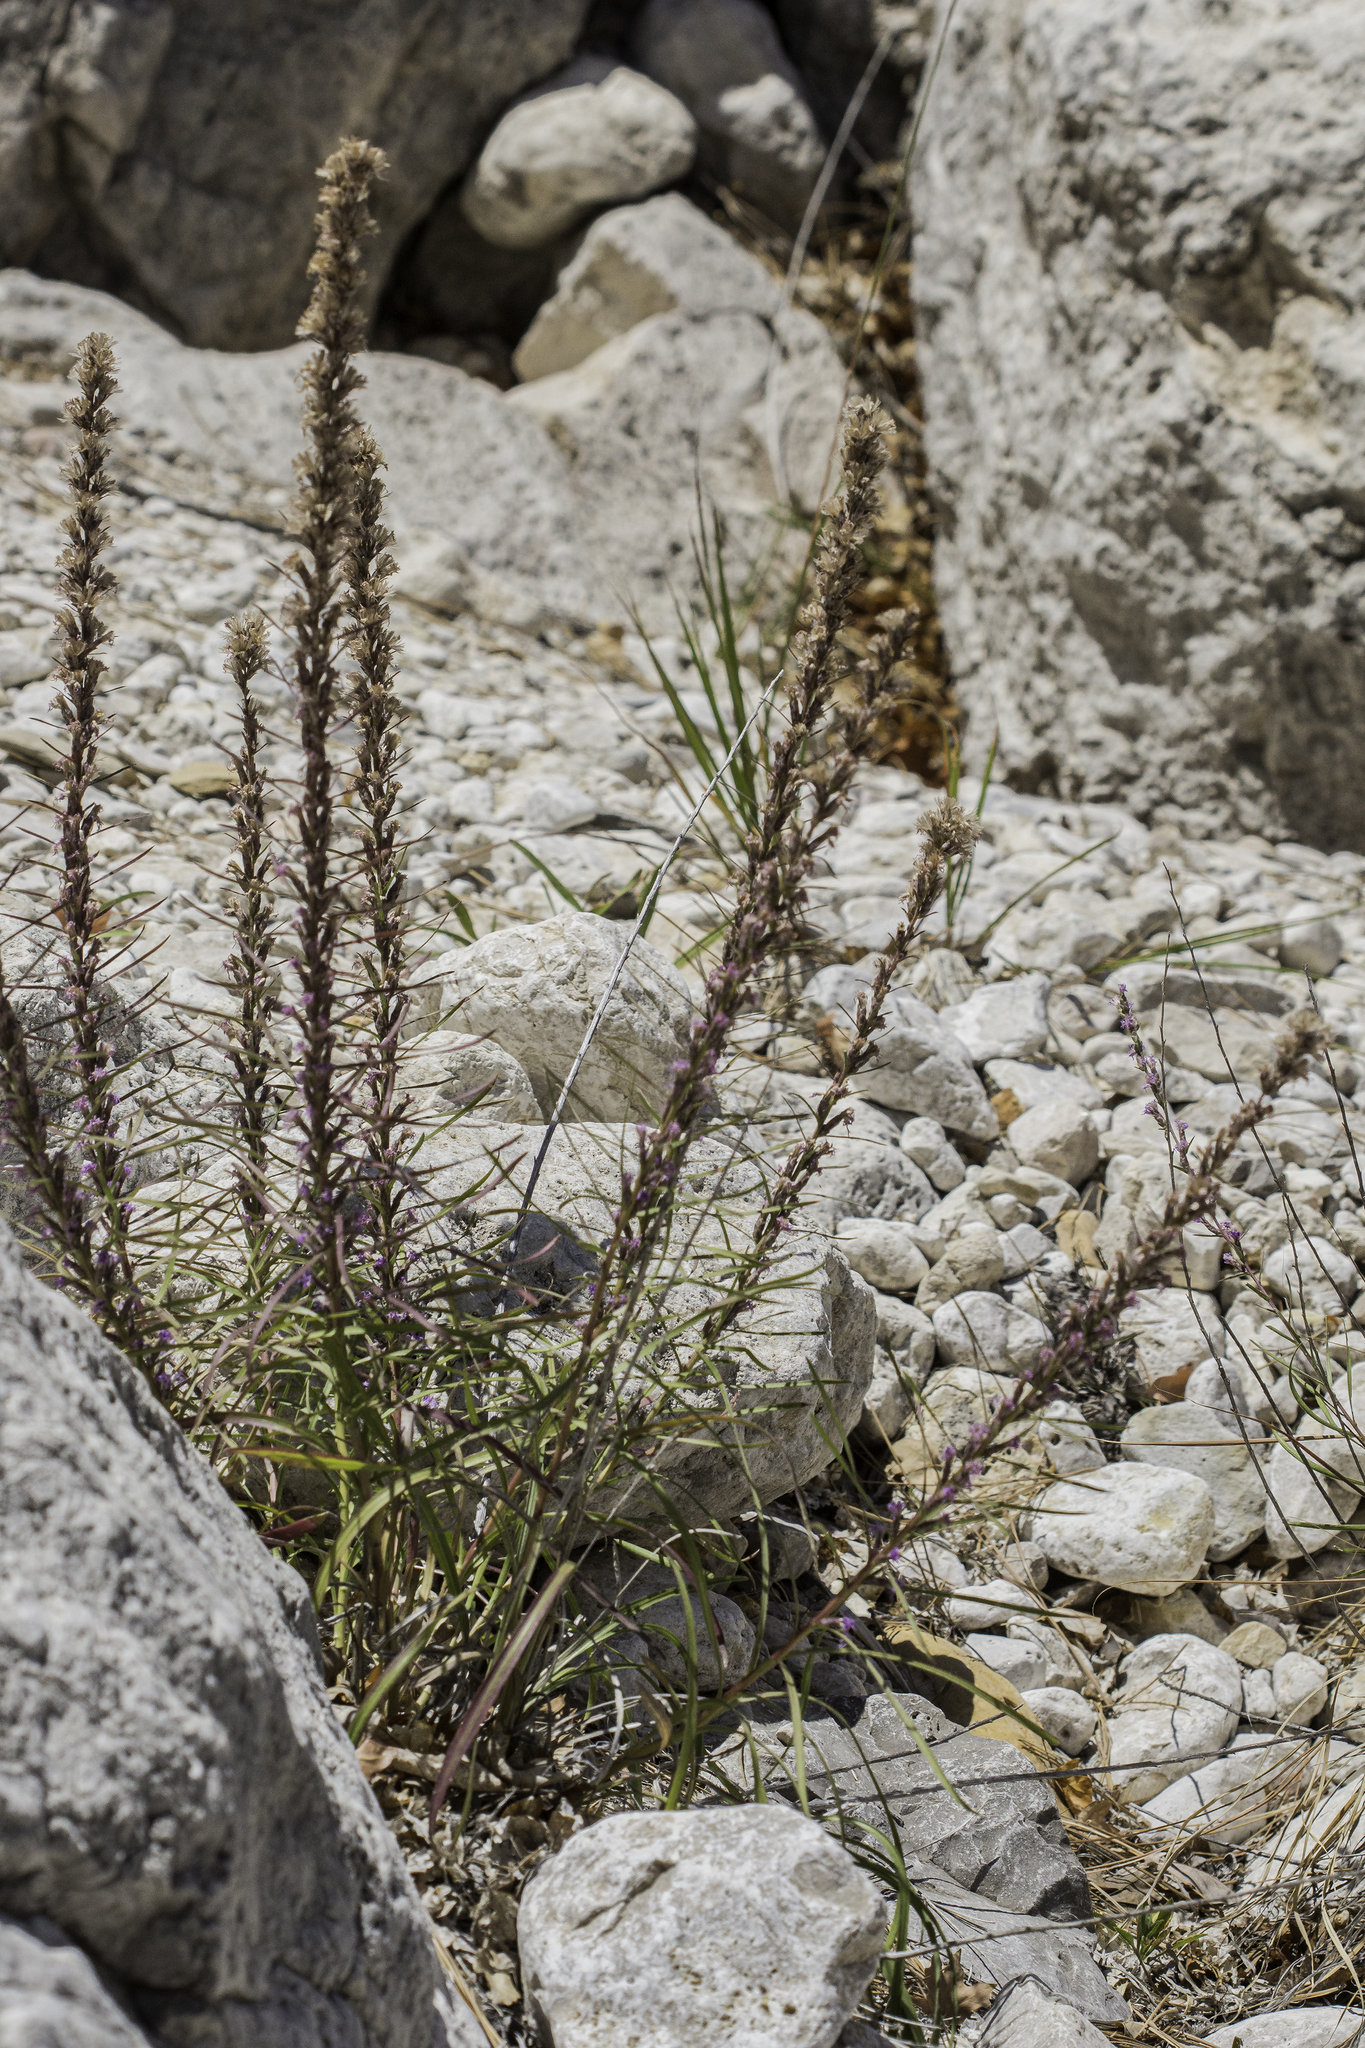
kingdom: Plantae
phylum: Tracheophyta
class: Magnoliopsida
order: Asterales
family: Asteraceae
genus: Liatris
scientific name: Liatris punctata
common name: Dotted gayfeather
